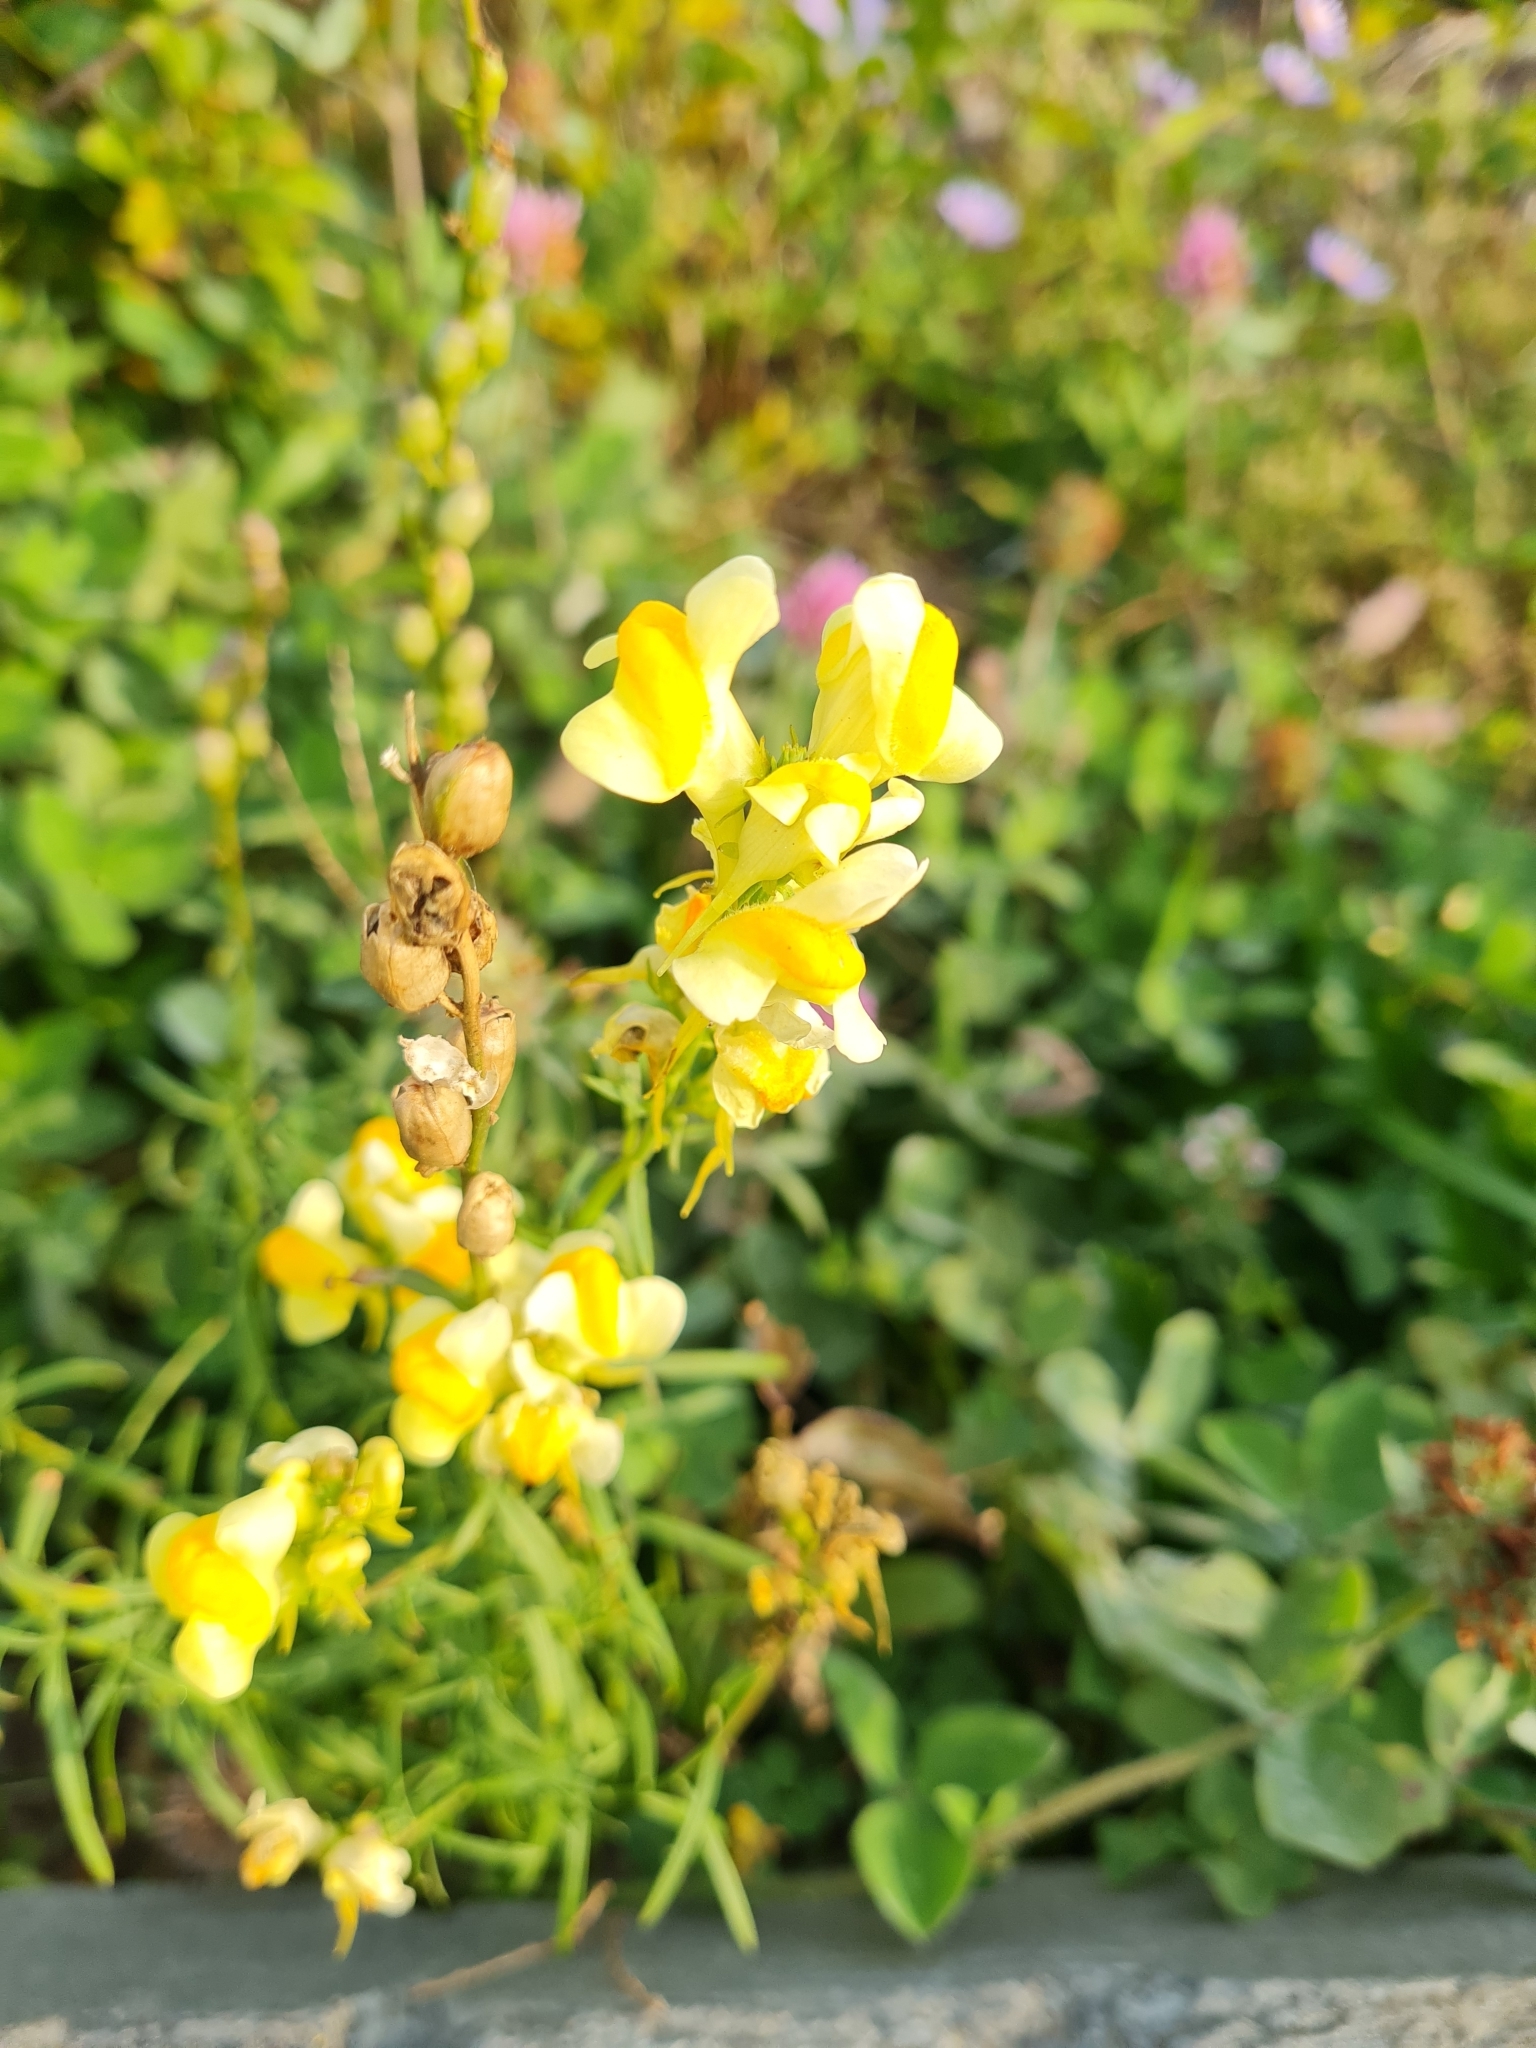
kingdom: Plantae
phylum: Tracheophyta
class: Magnoliopsida
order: Lamiales
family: Plantaginaceae
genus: Linaria
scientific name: Linaria vulgaris
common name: Butter and eggs
